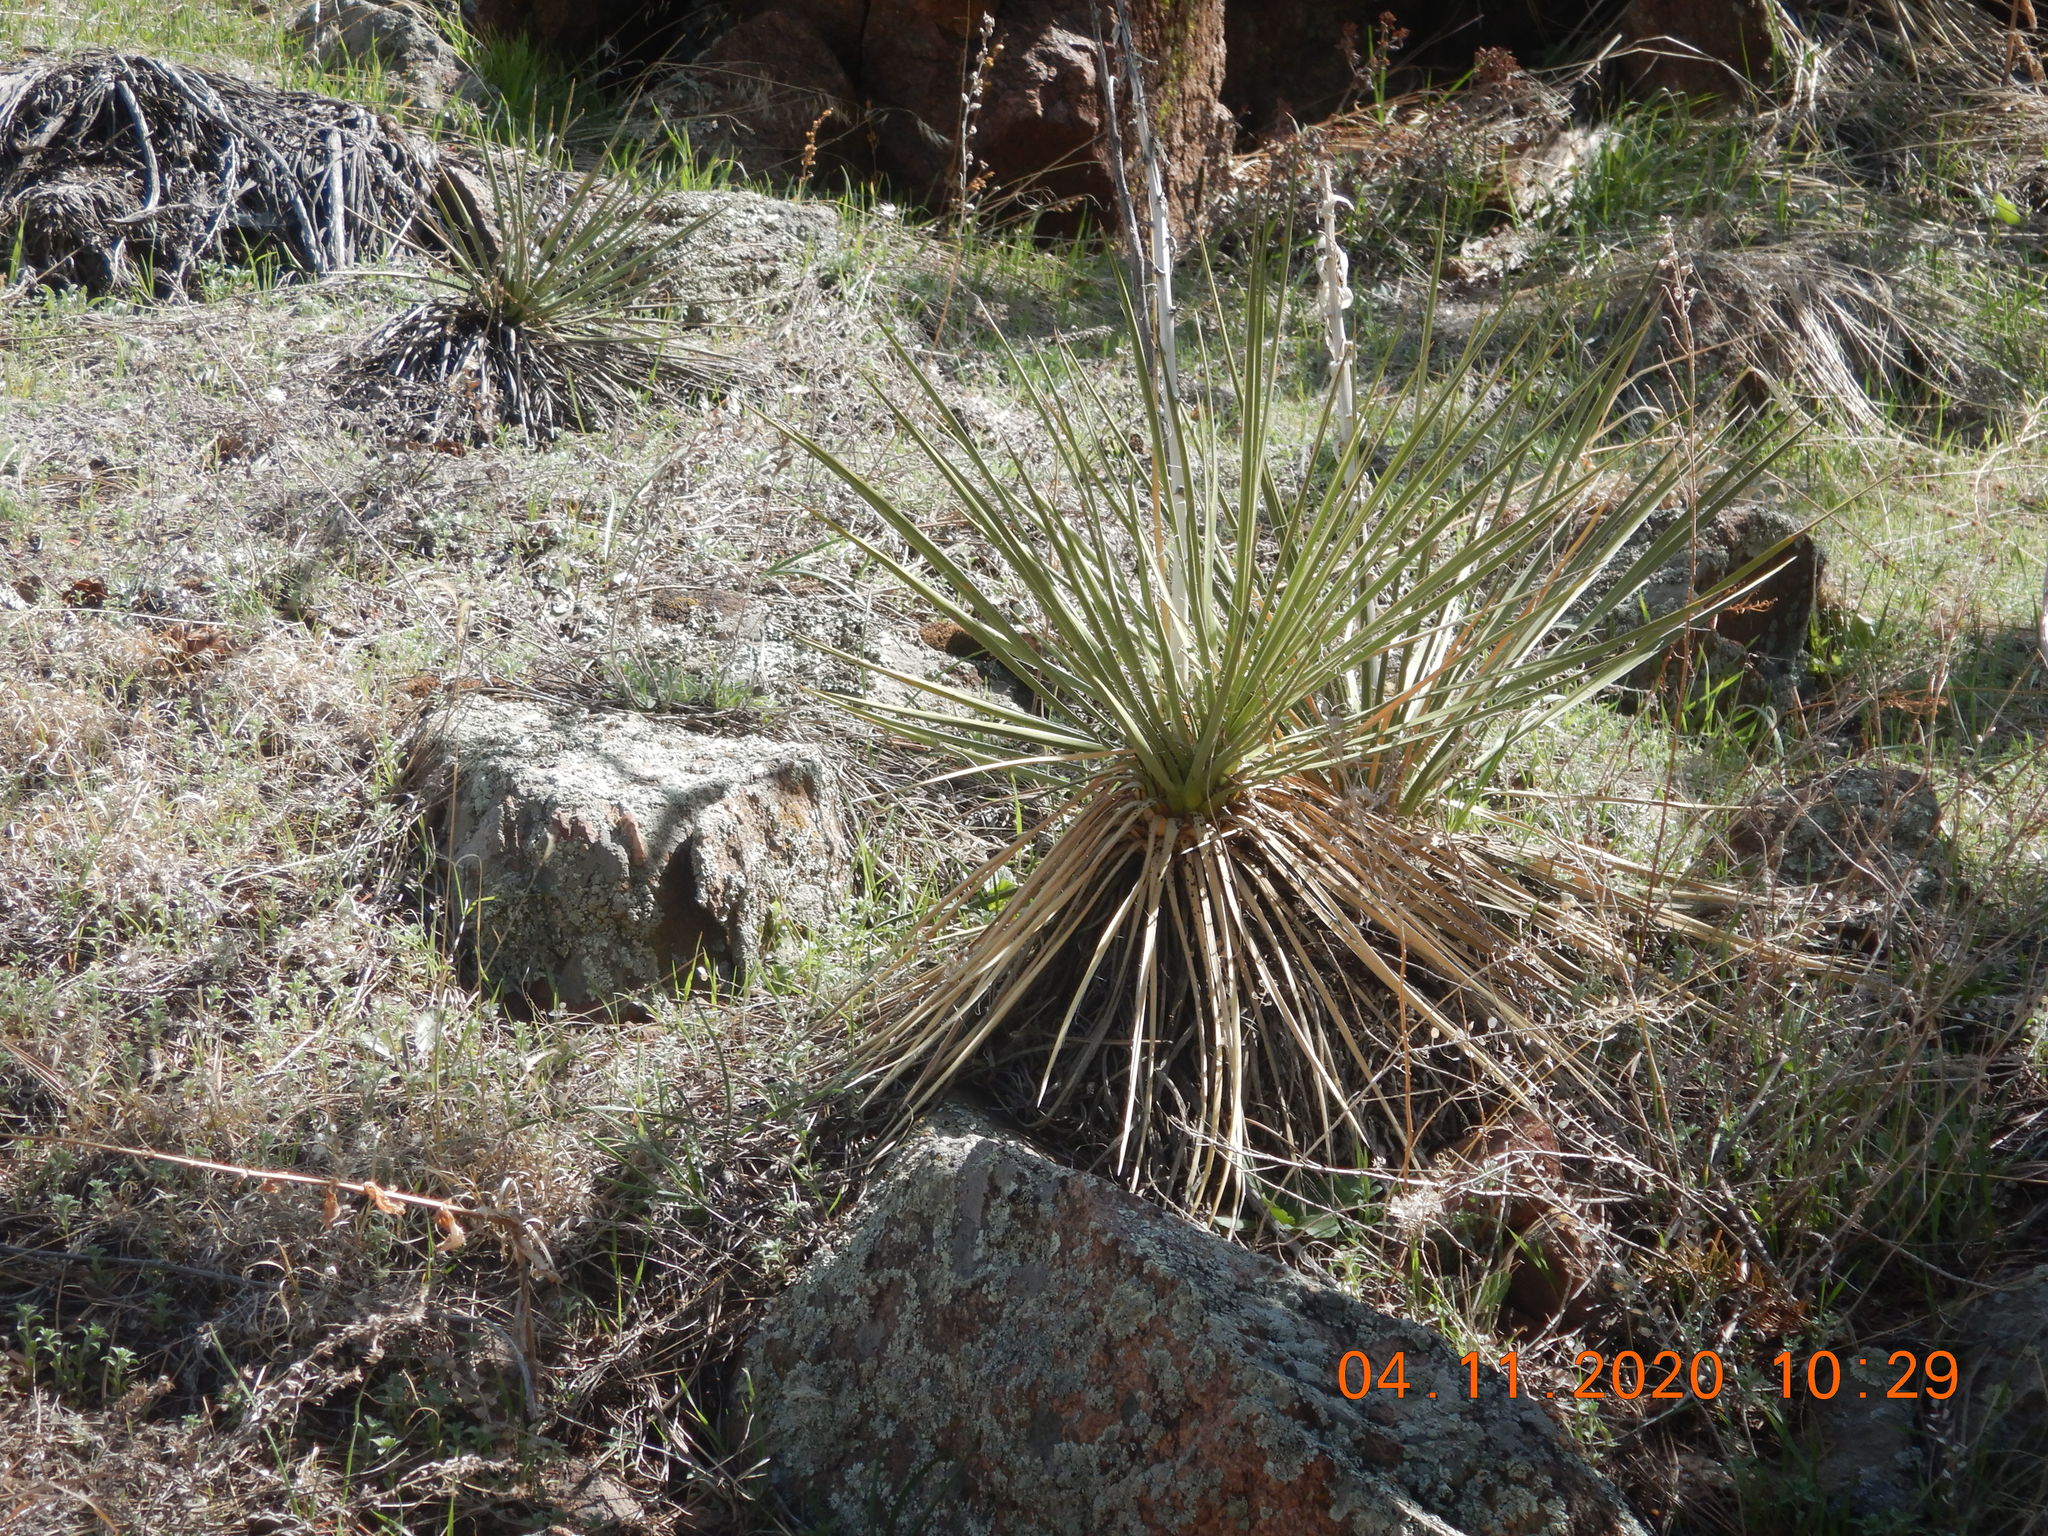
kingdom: Plantae
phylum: Tracheophyta
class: Liliopsida
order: Asparagales
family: Asparagaceae
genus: Yucca
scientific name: Yucca glauca
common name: Great plains yucca
